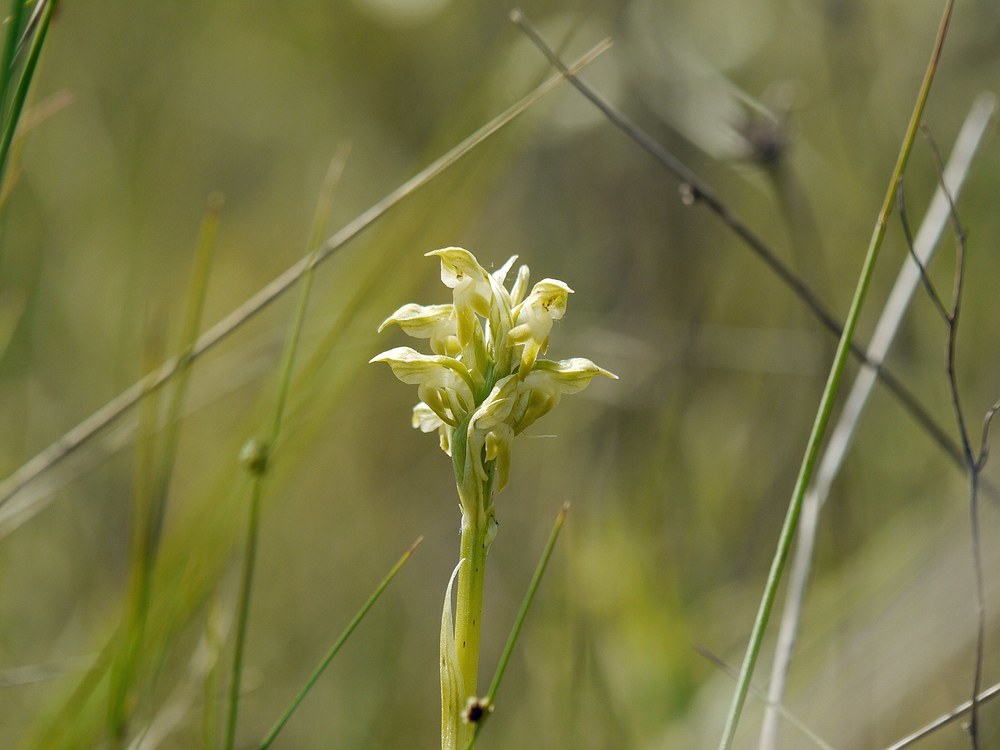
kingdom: Plantae
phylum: Tracheophyta
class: Liliopsida
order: Asparagales
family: Orchidaceae
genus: Anacamptis
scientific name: Anacamptis coriophora
